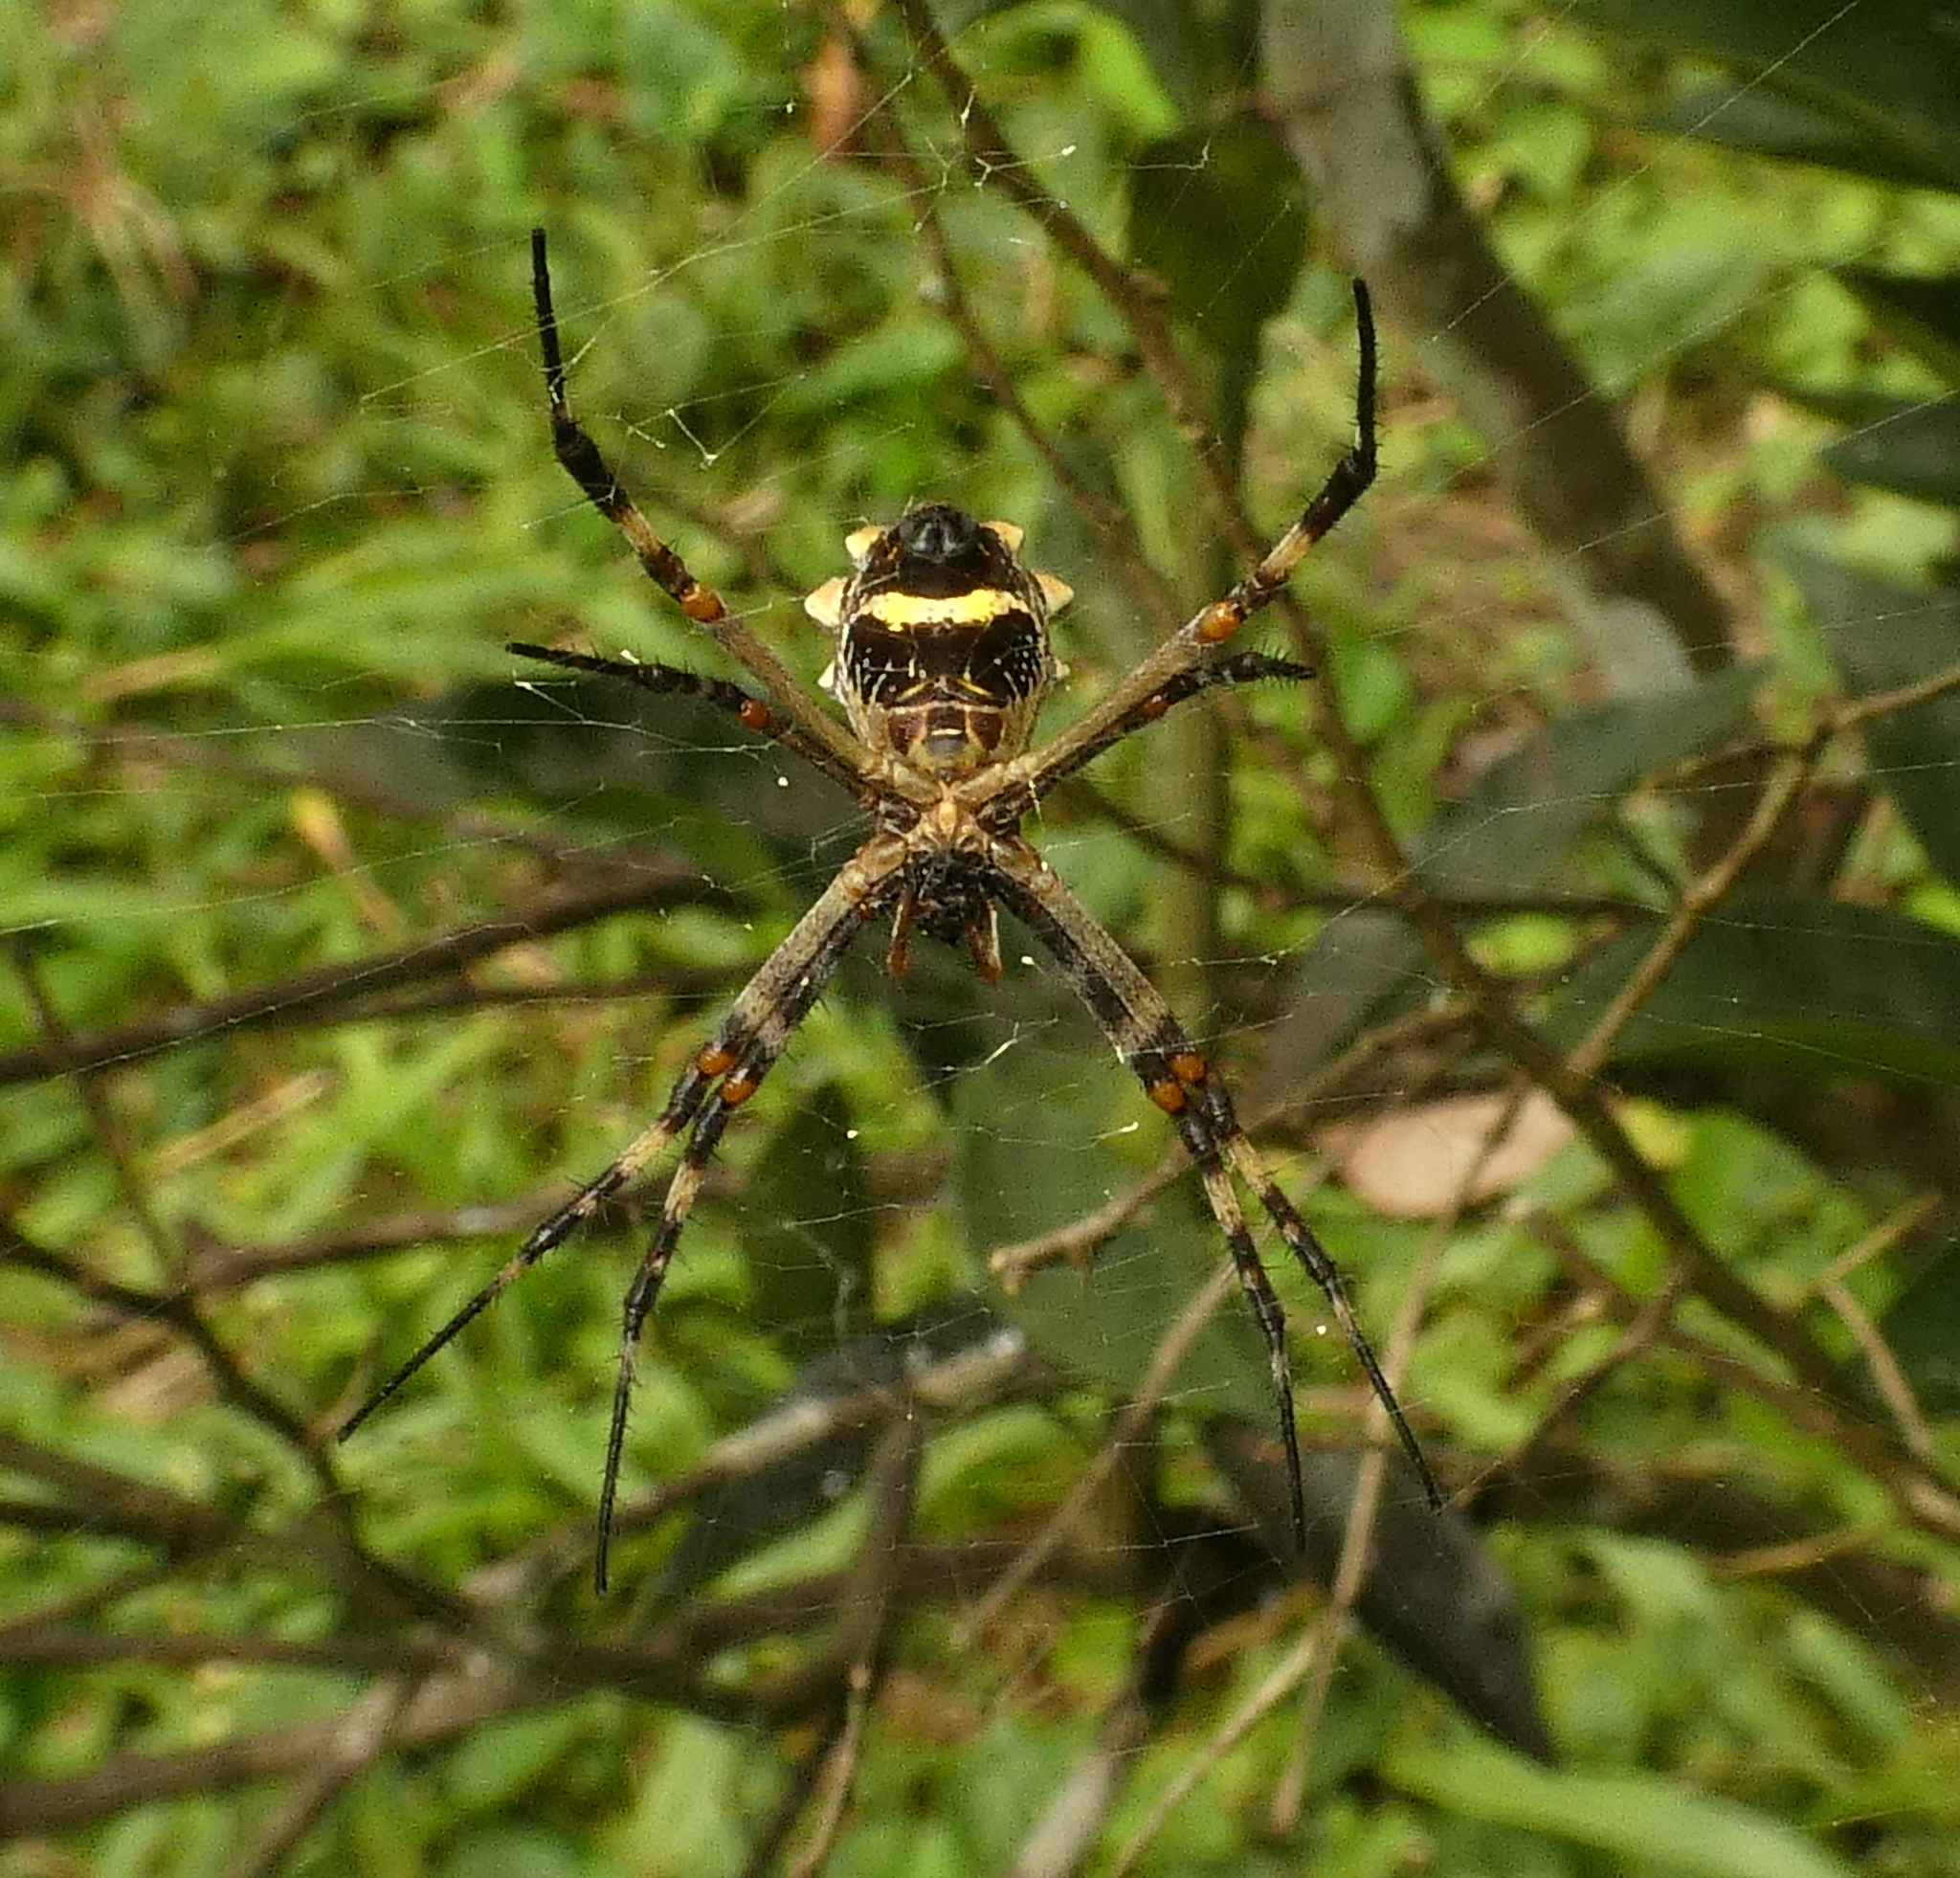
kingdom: Animalia
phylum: Arthropoda
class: Arachnida
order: Araneae
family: Araneidae
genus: Argiope
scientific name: Argiope argentata
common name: Orb weavers
